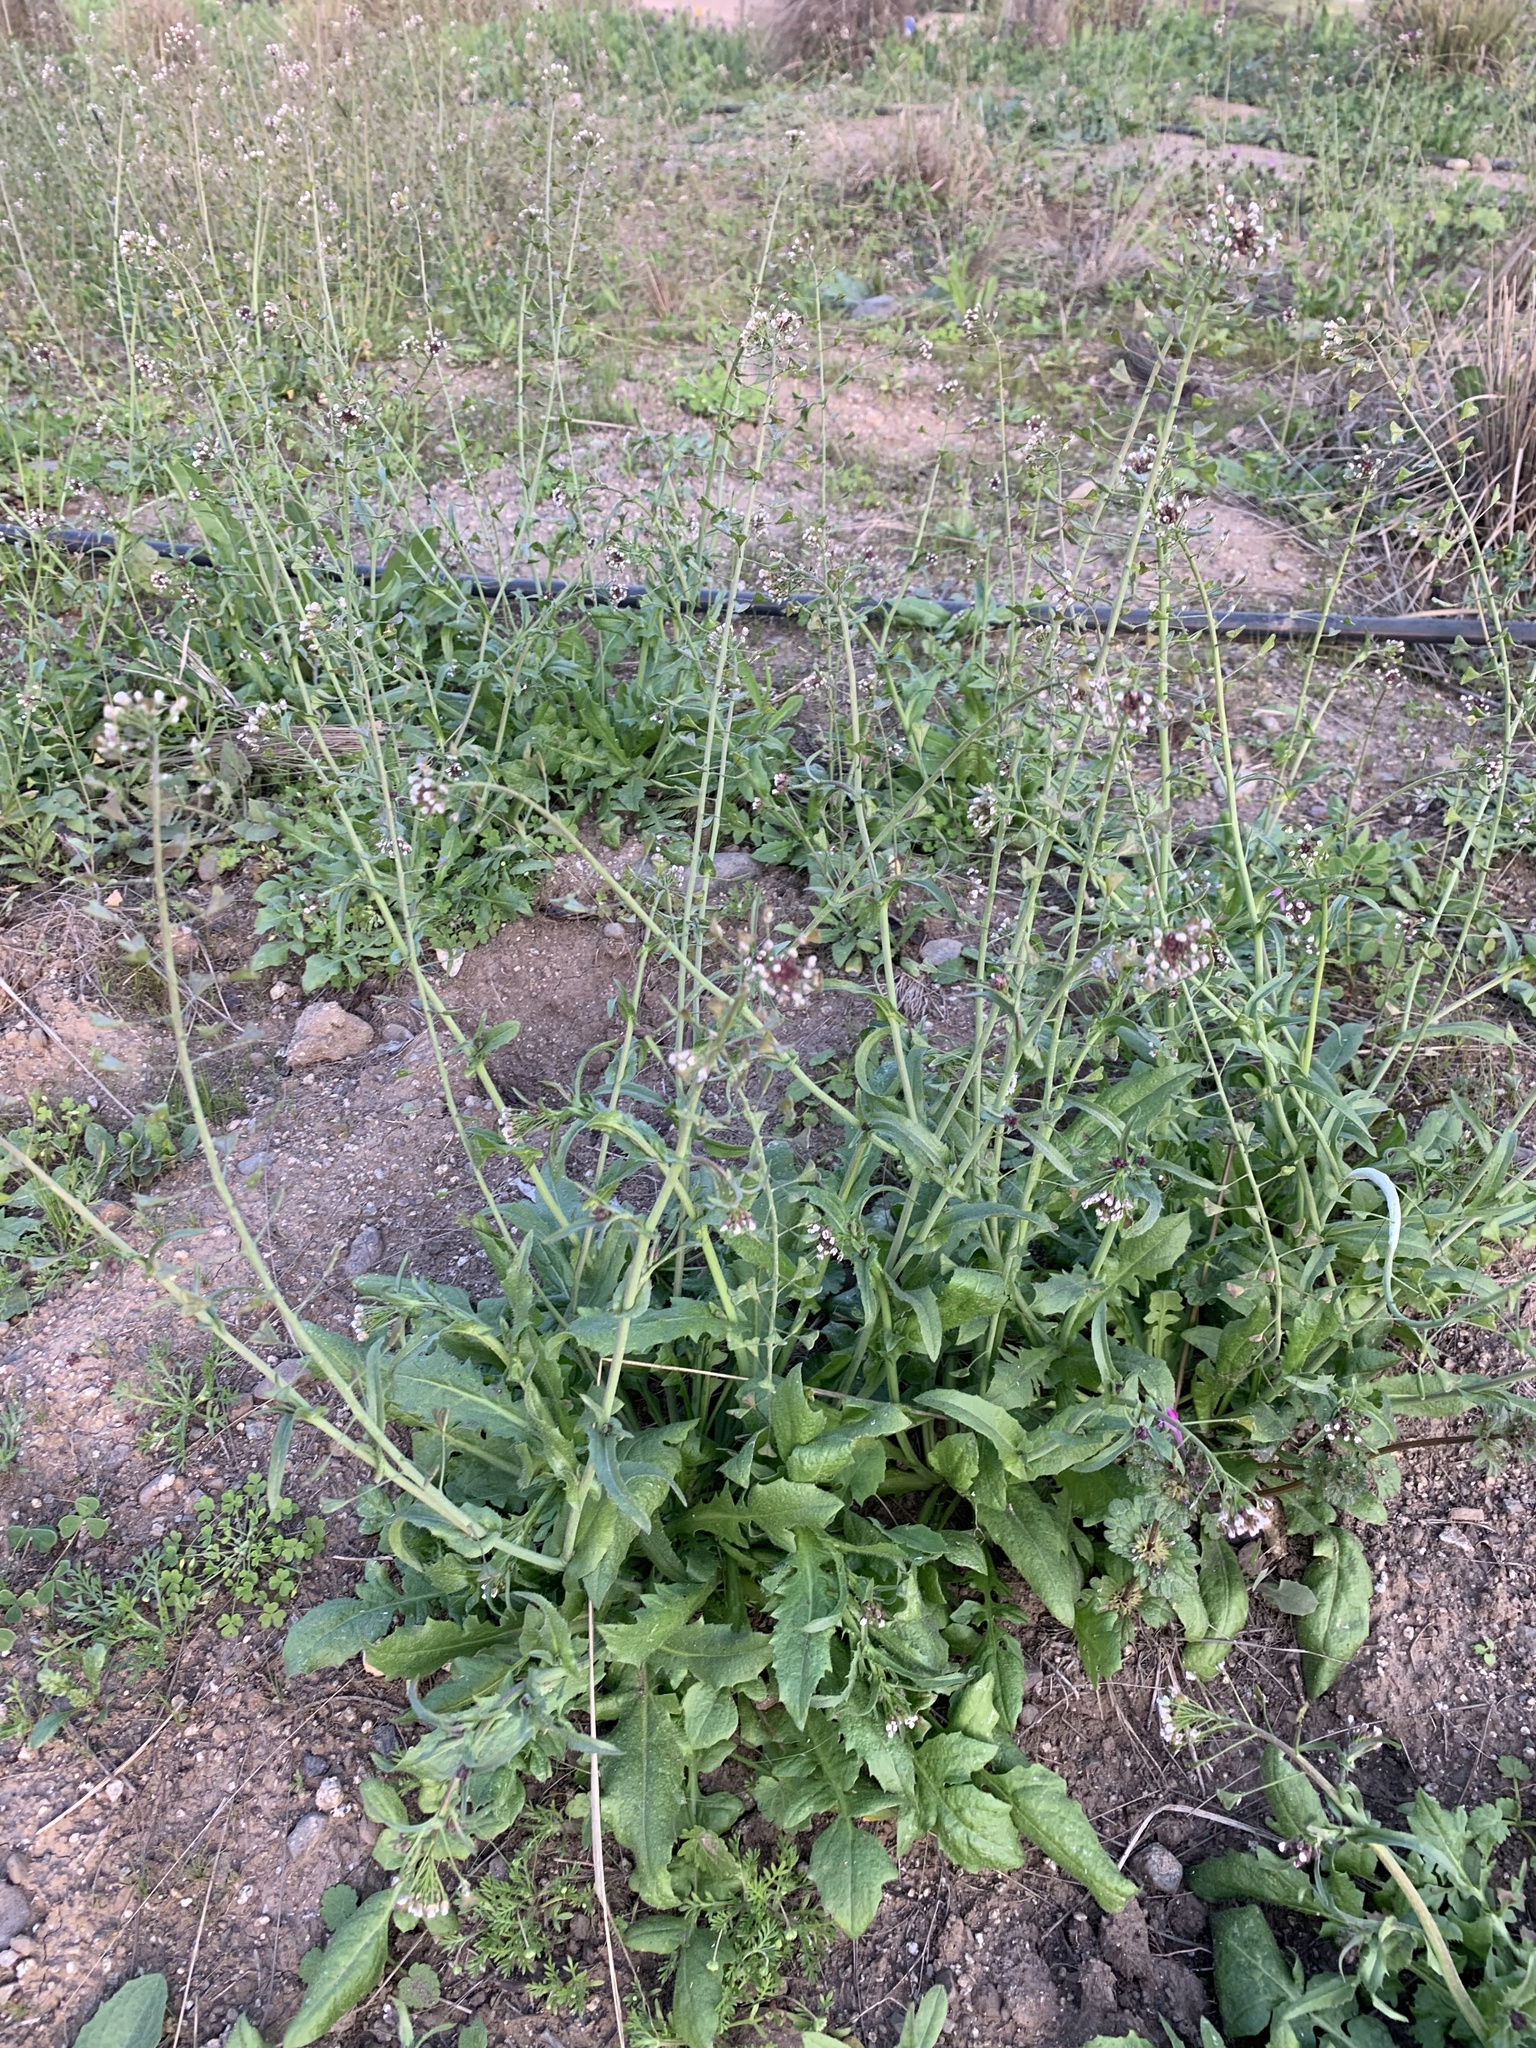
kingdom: Plantae
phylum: Tracheophyta
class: Magnoliopsida
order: Brassicales
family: Brassicaceae
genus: Capsella
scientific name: Capsella bursa-pastoris
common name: Shepherd's purse
